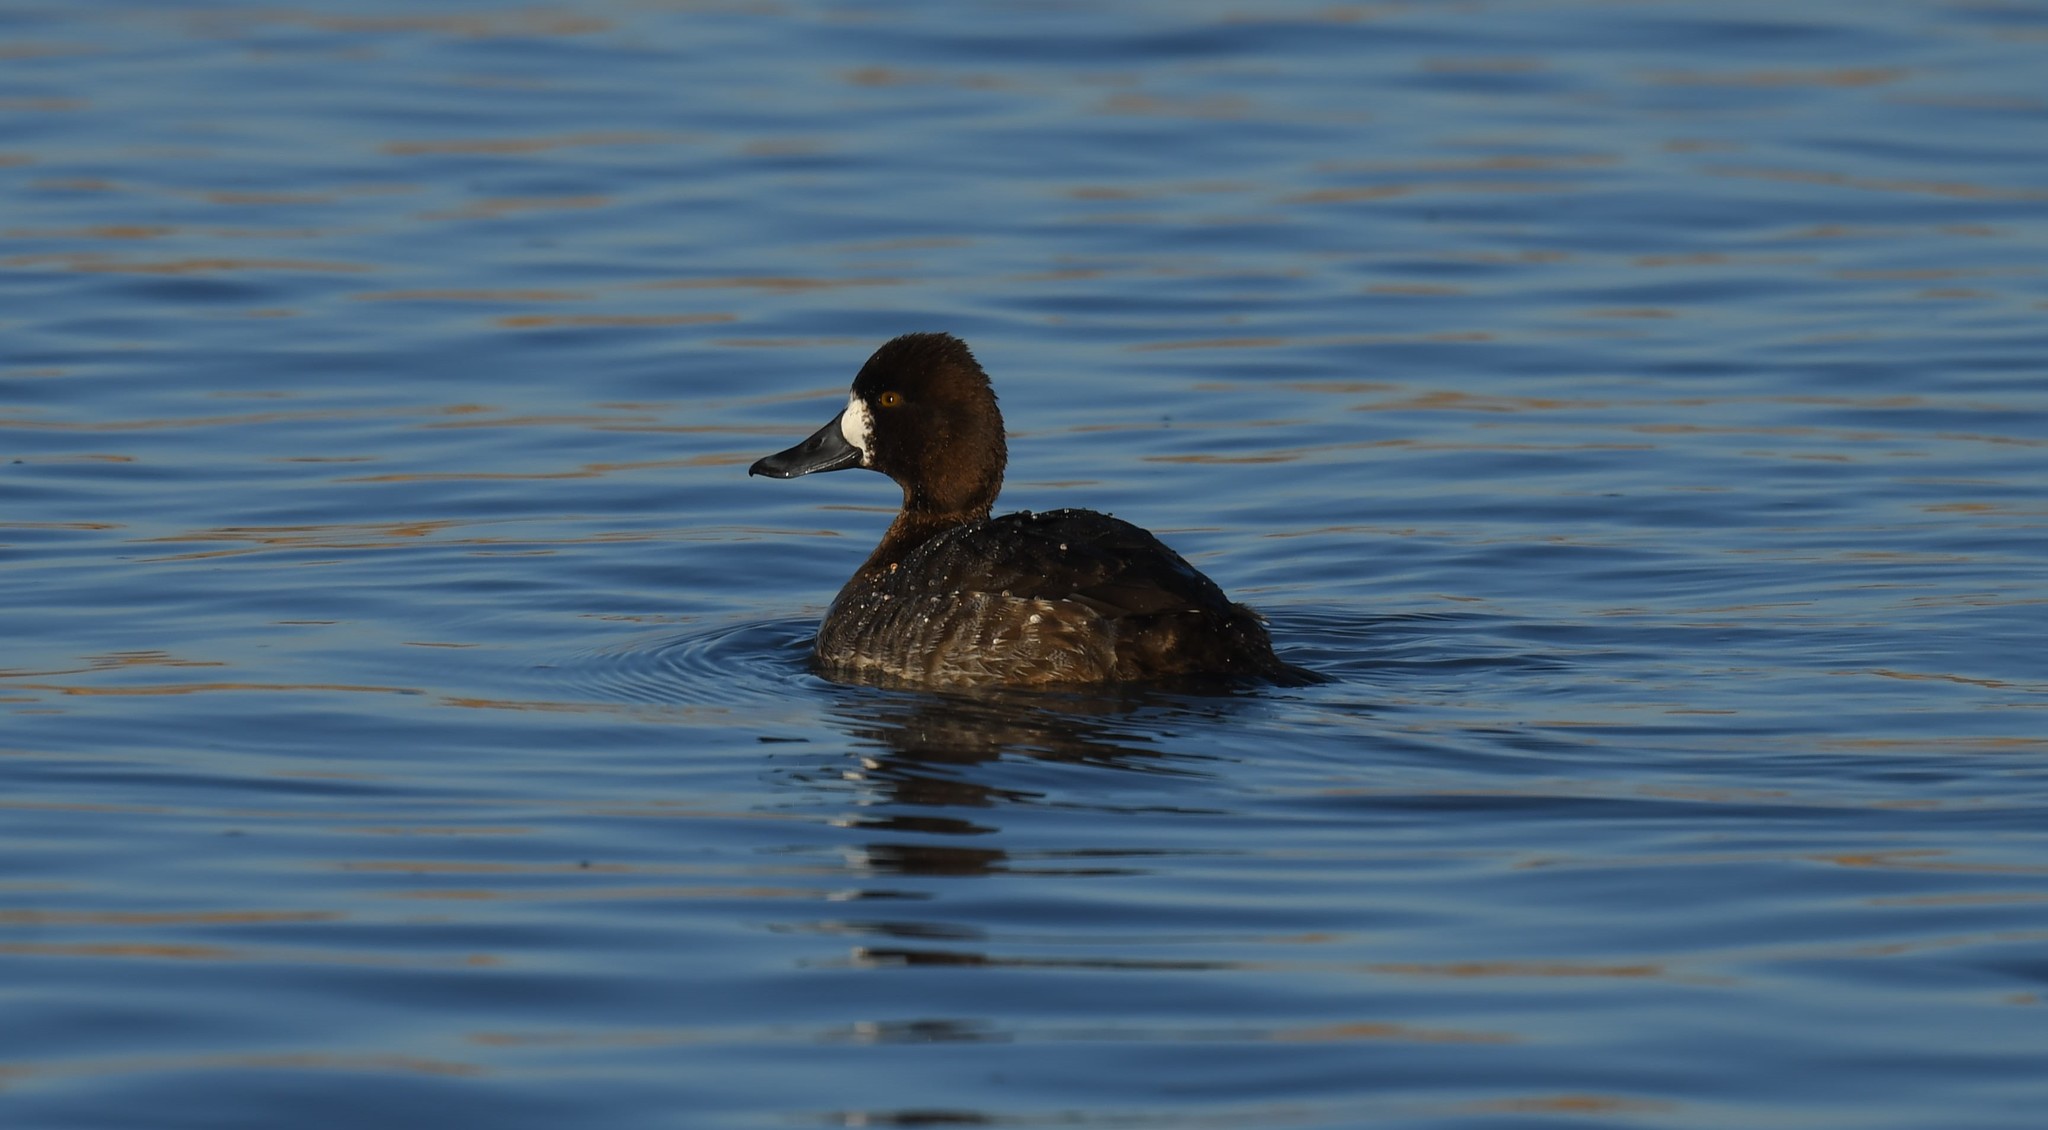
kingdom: Animalia
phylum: Chordata
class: Aves
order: Anseriformes
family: Anatidae
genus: Aythya
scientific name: Aythya affinis
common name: Lesser scaup
